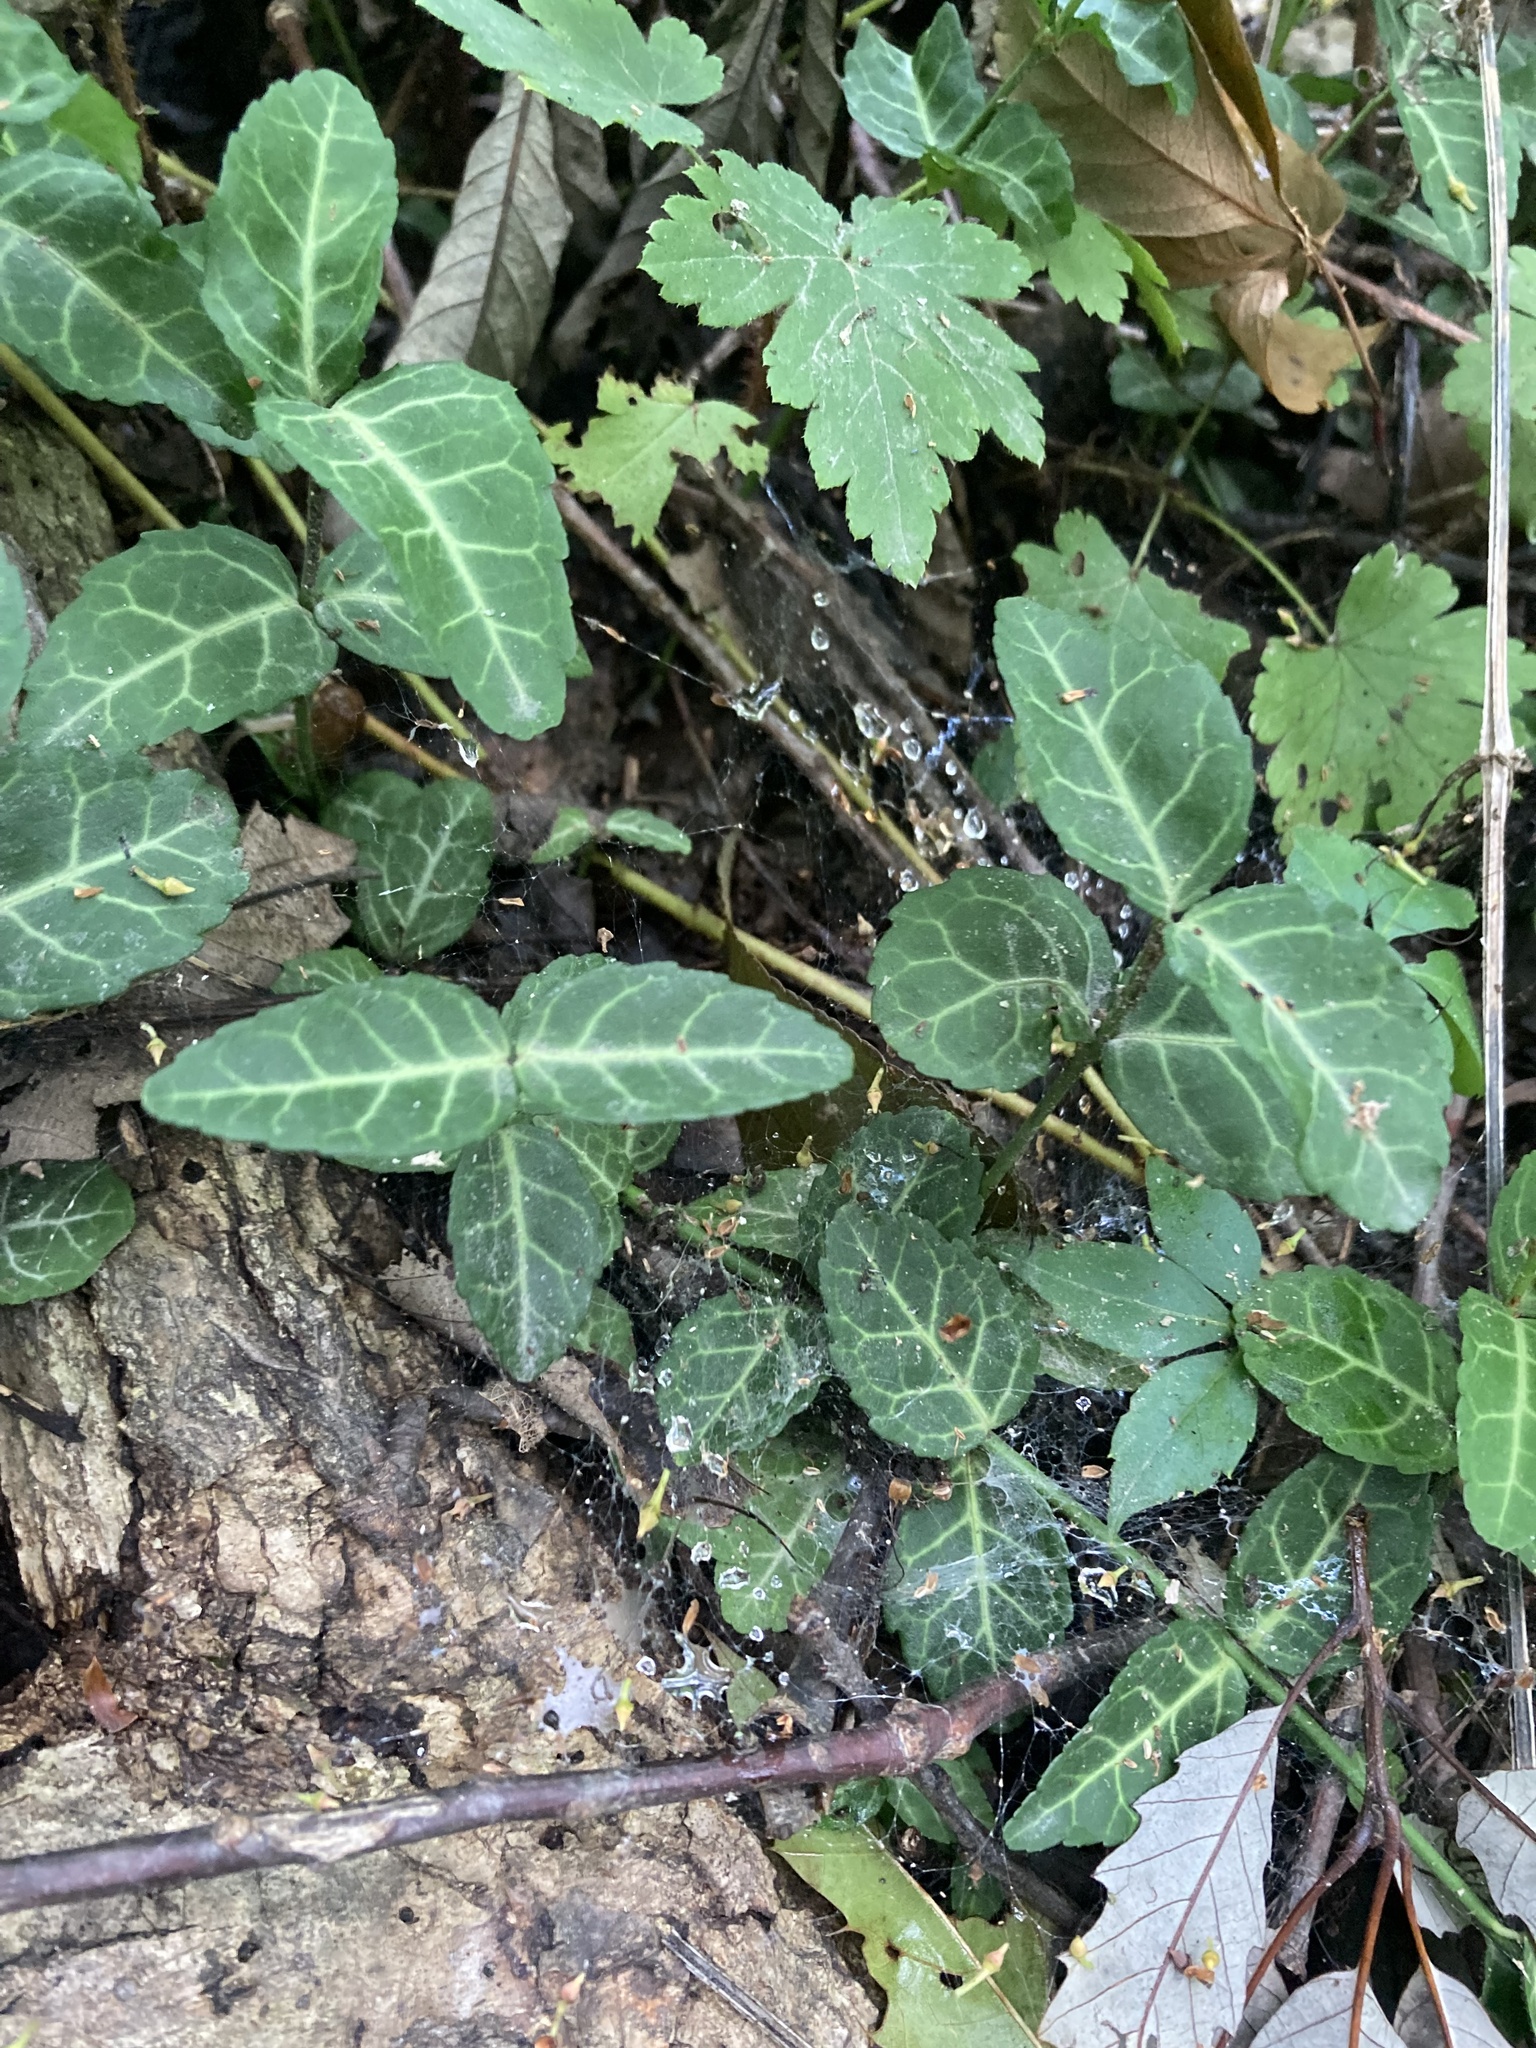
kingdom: Plantae
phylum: Tracheophyta
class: Magnoliopsida
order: Celastrales
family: Celastraceae
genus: Euonymus
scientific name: Euonymus fortunei
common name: Climbing euonymus
